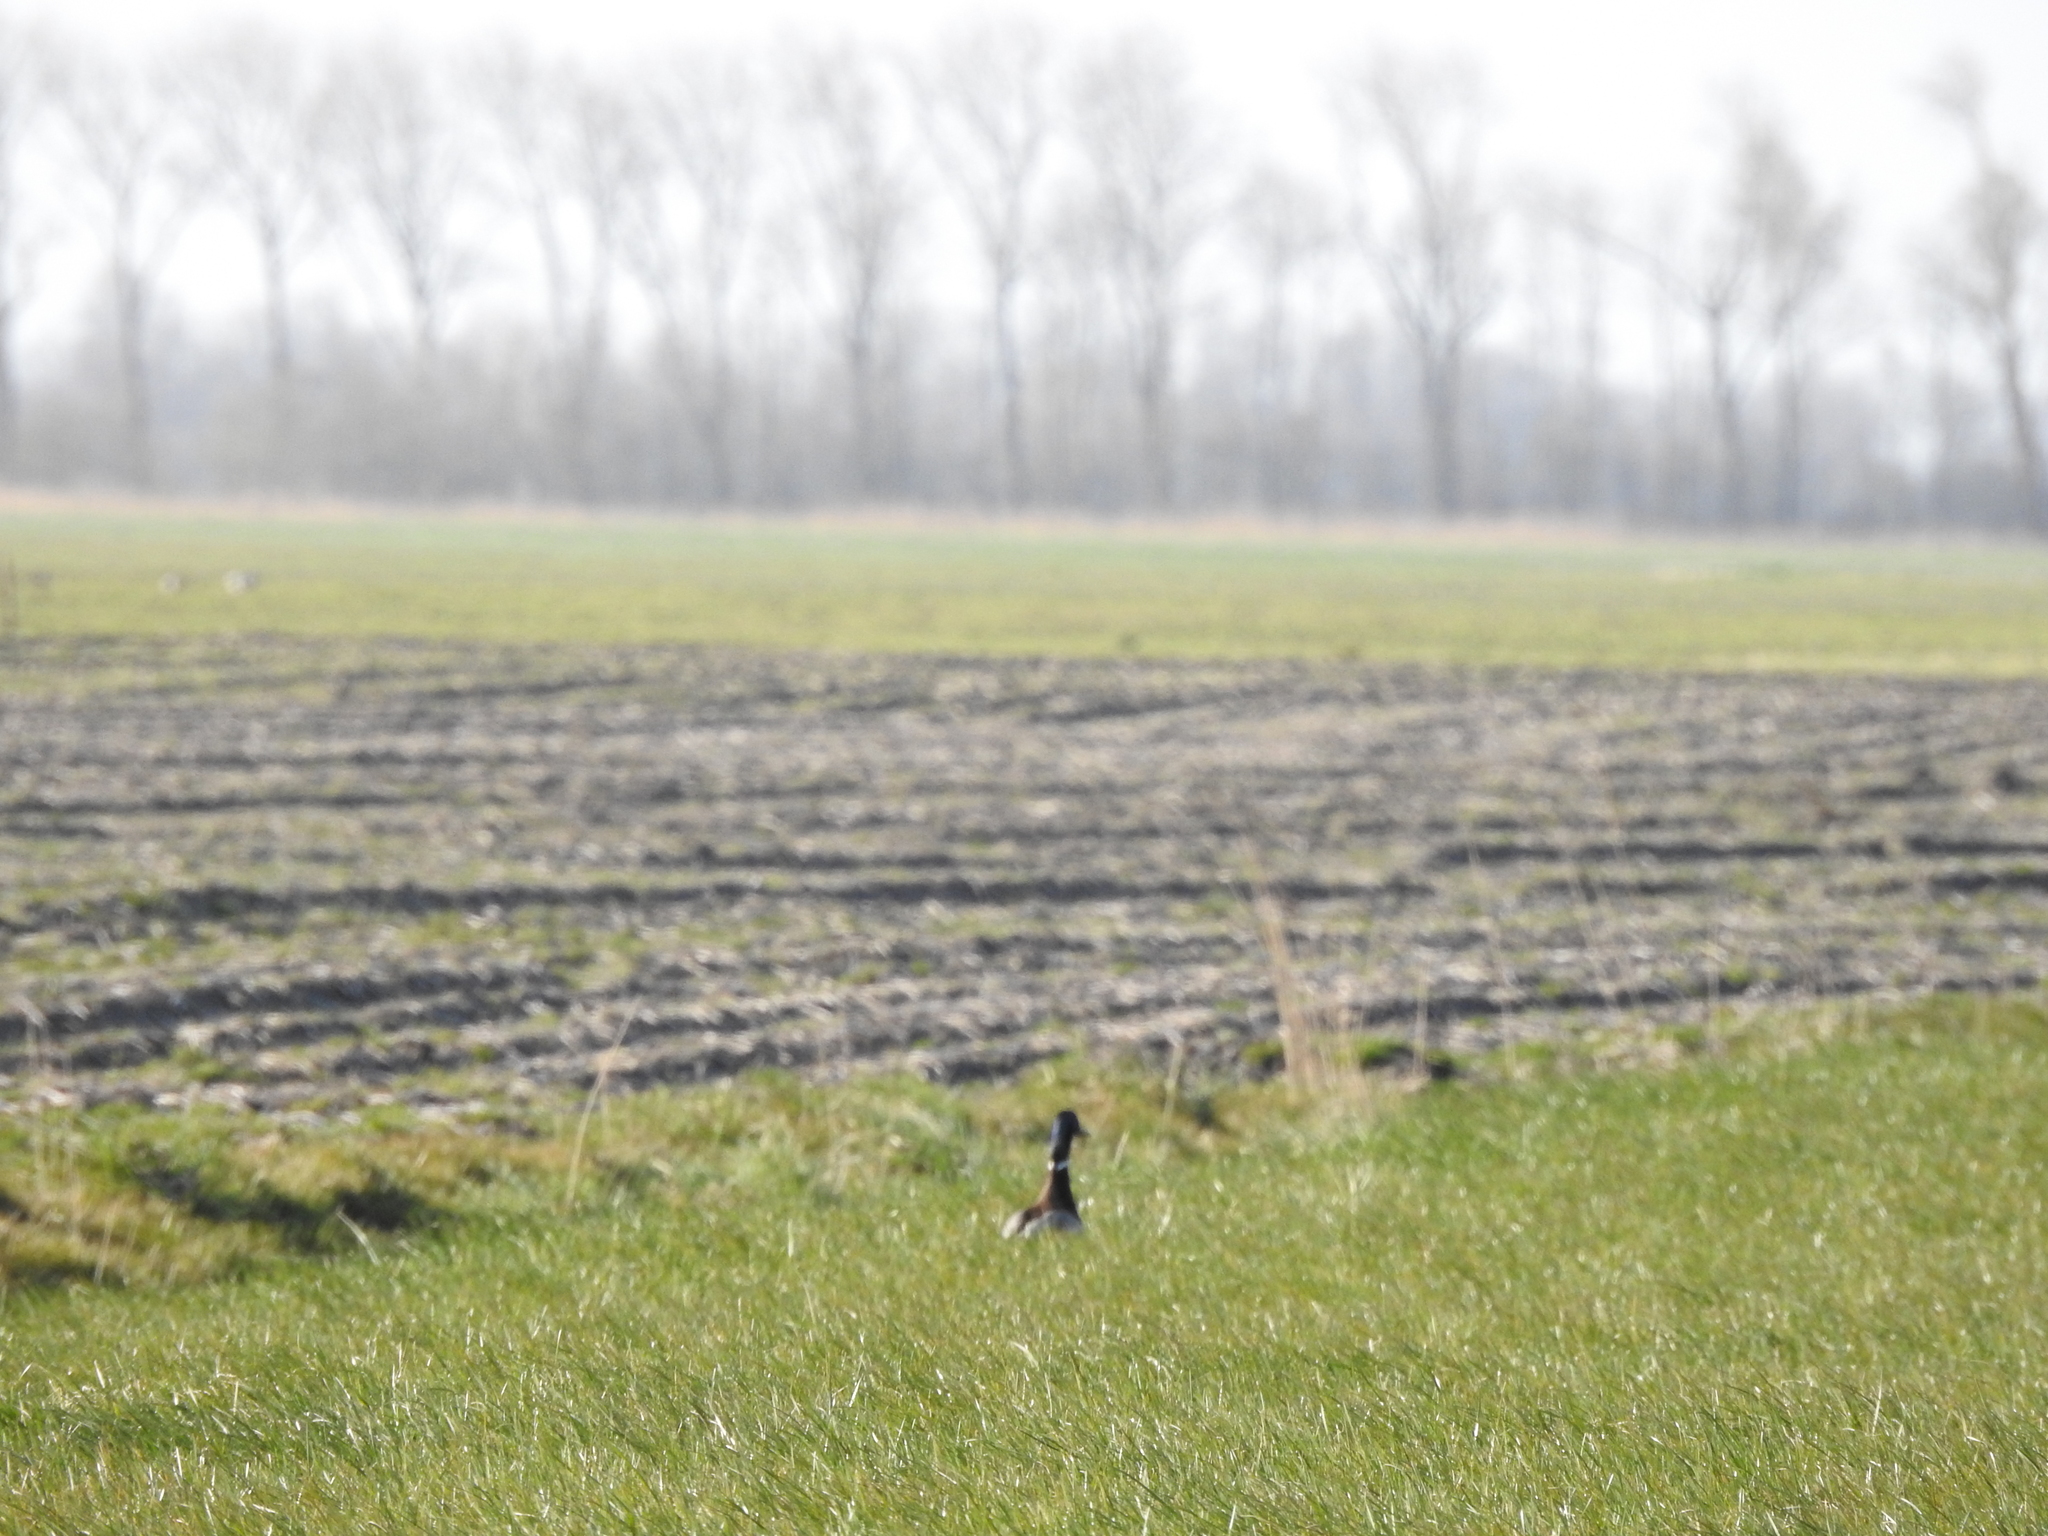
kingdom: Animalia
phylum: Chordata
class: Aves
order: Anseriformes
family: Anatidae
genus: Anas
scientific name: Anas platyrhynchos
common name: Mallard
